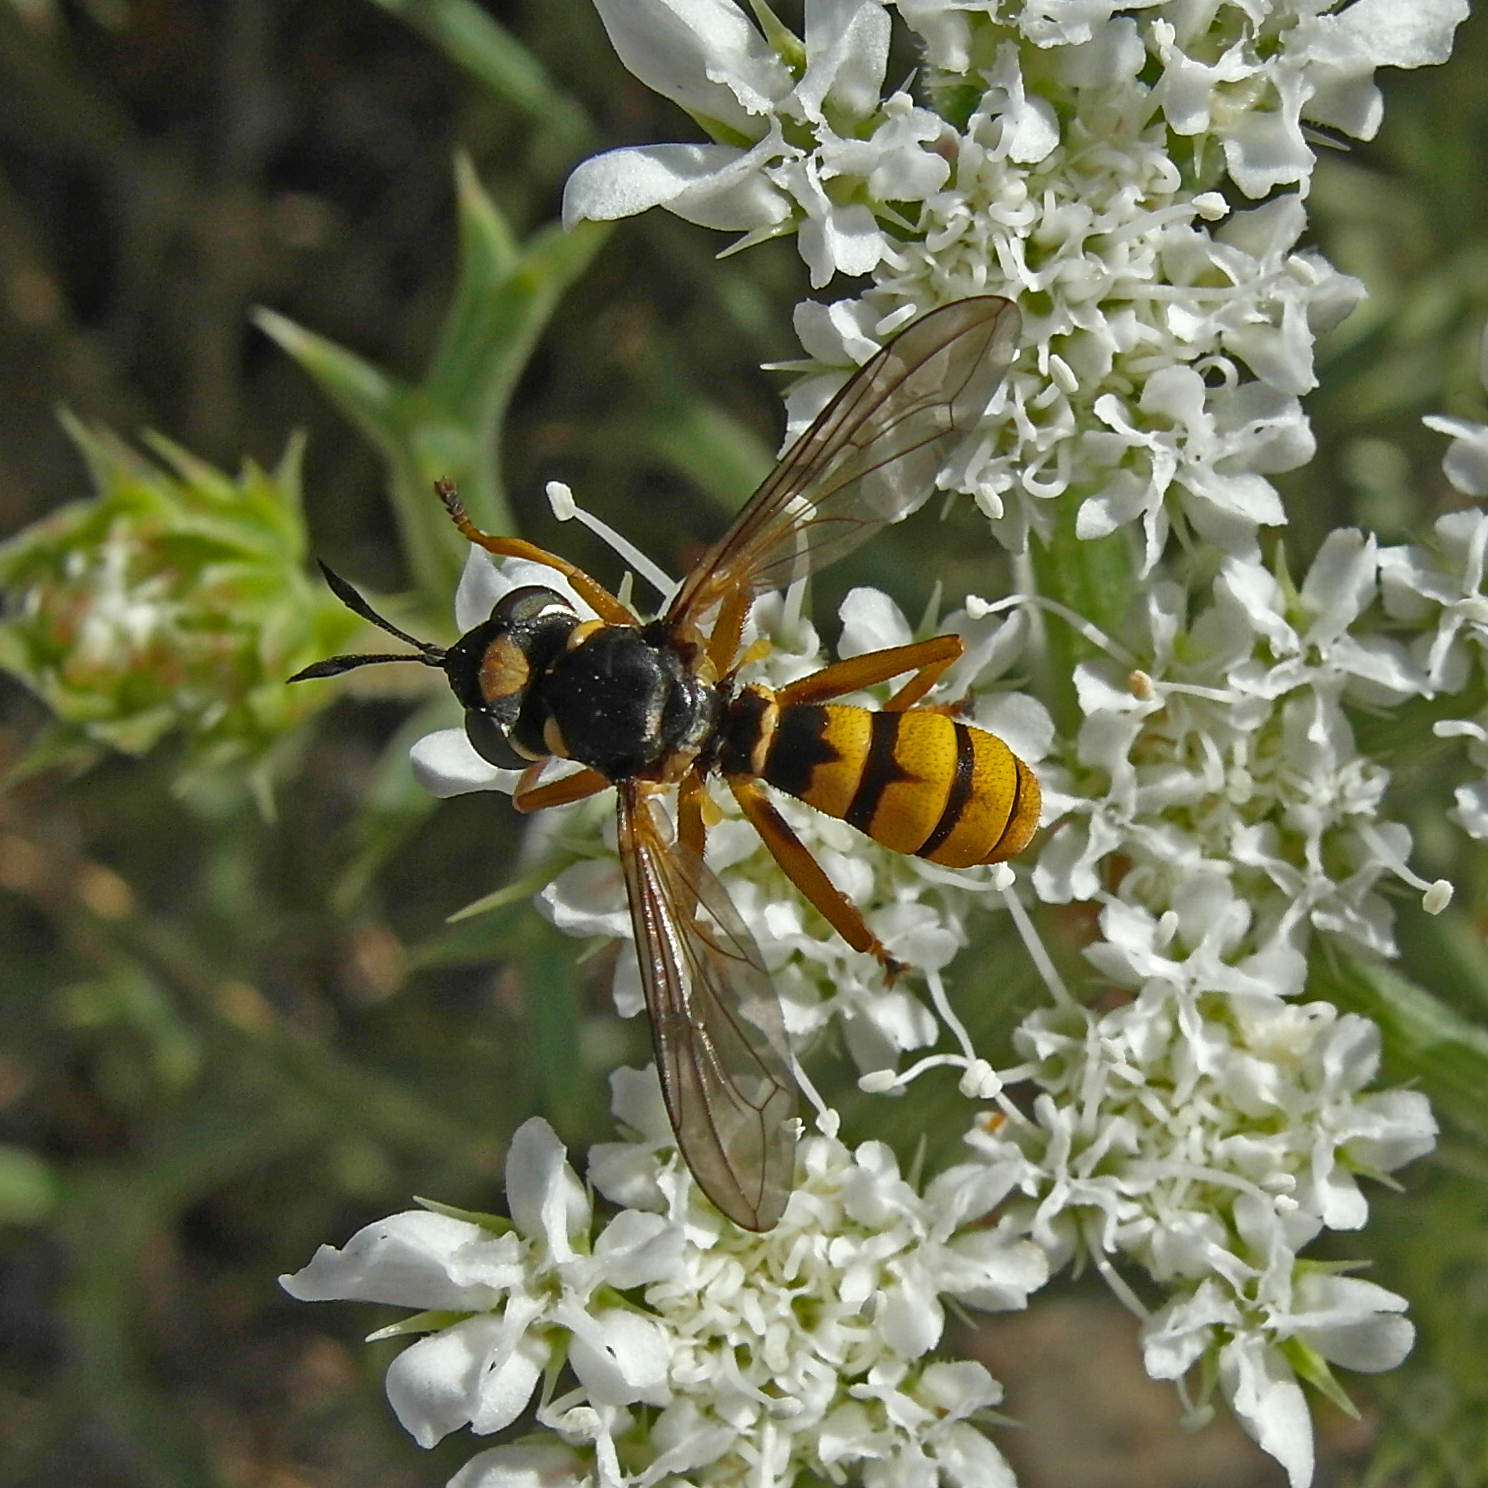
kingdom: Animalia
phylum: Arthropoda
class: Insecta
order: Diptera
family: Conopidae
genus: Conops
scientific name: Conops vitellinus
